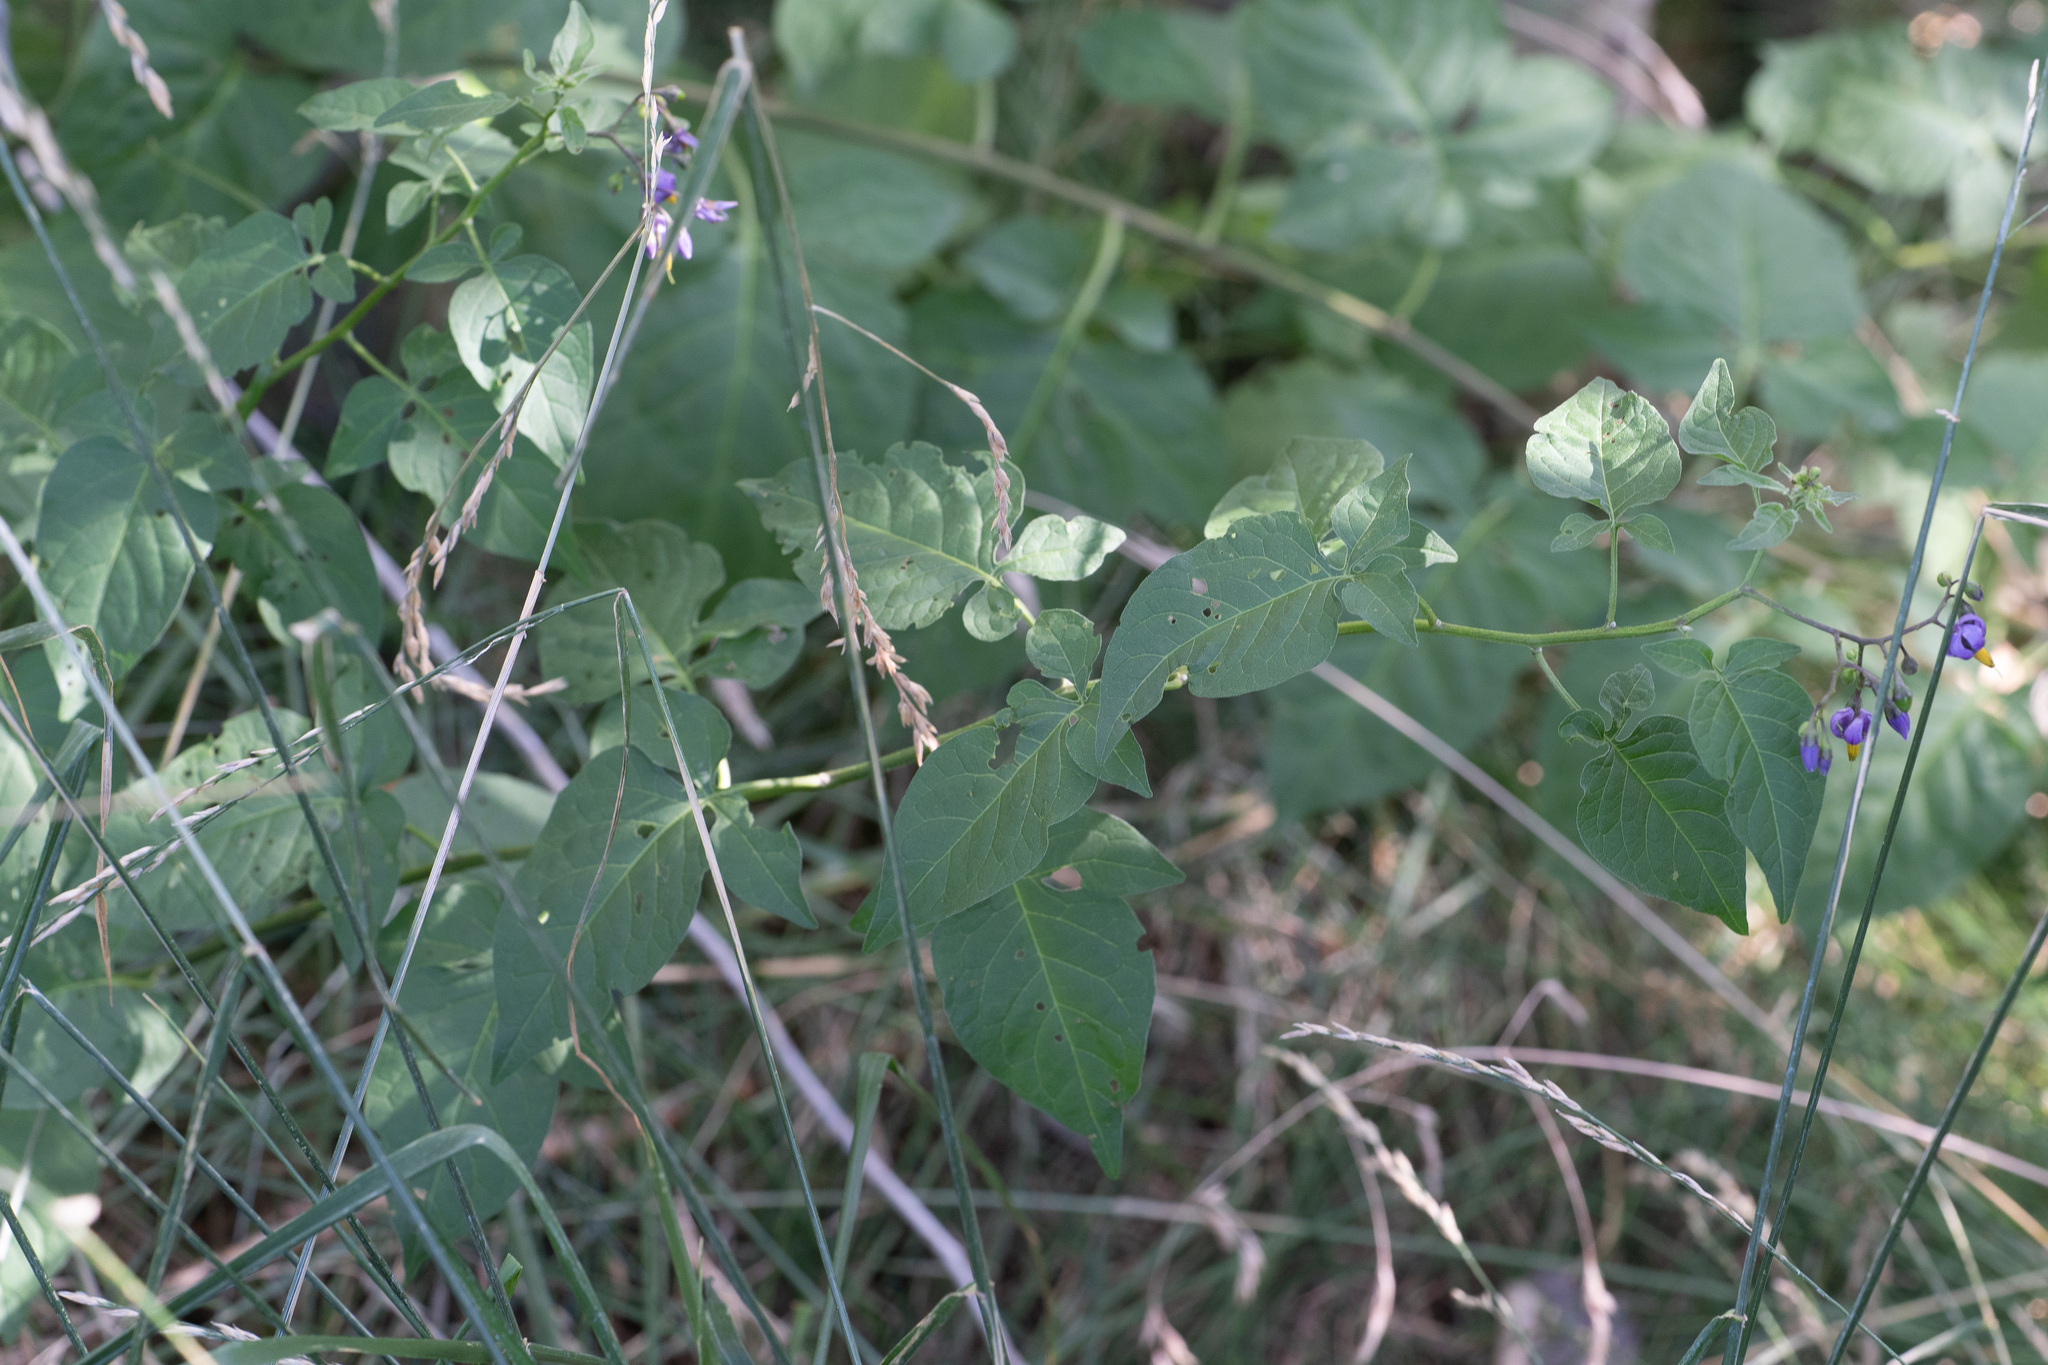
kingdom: Plantae
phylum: Tracheophyta
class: Magnoliopsida
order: Solanales
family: Solanaceae
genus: Solanum
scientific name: Solanum dulcamara
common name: Climbing nightshade
